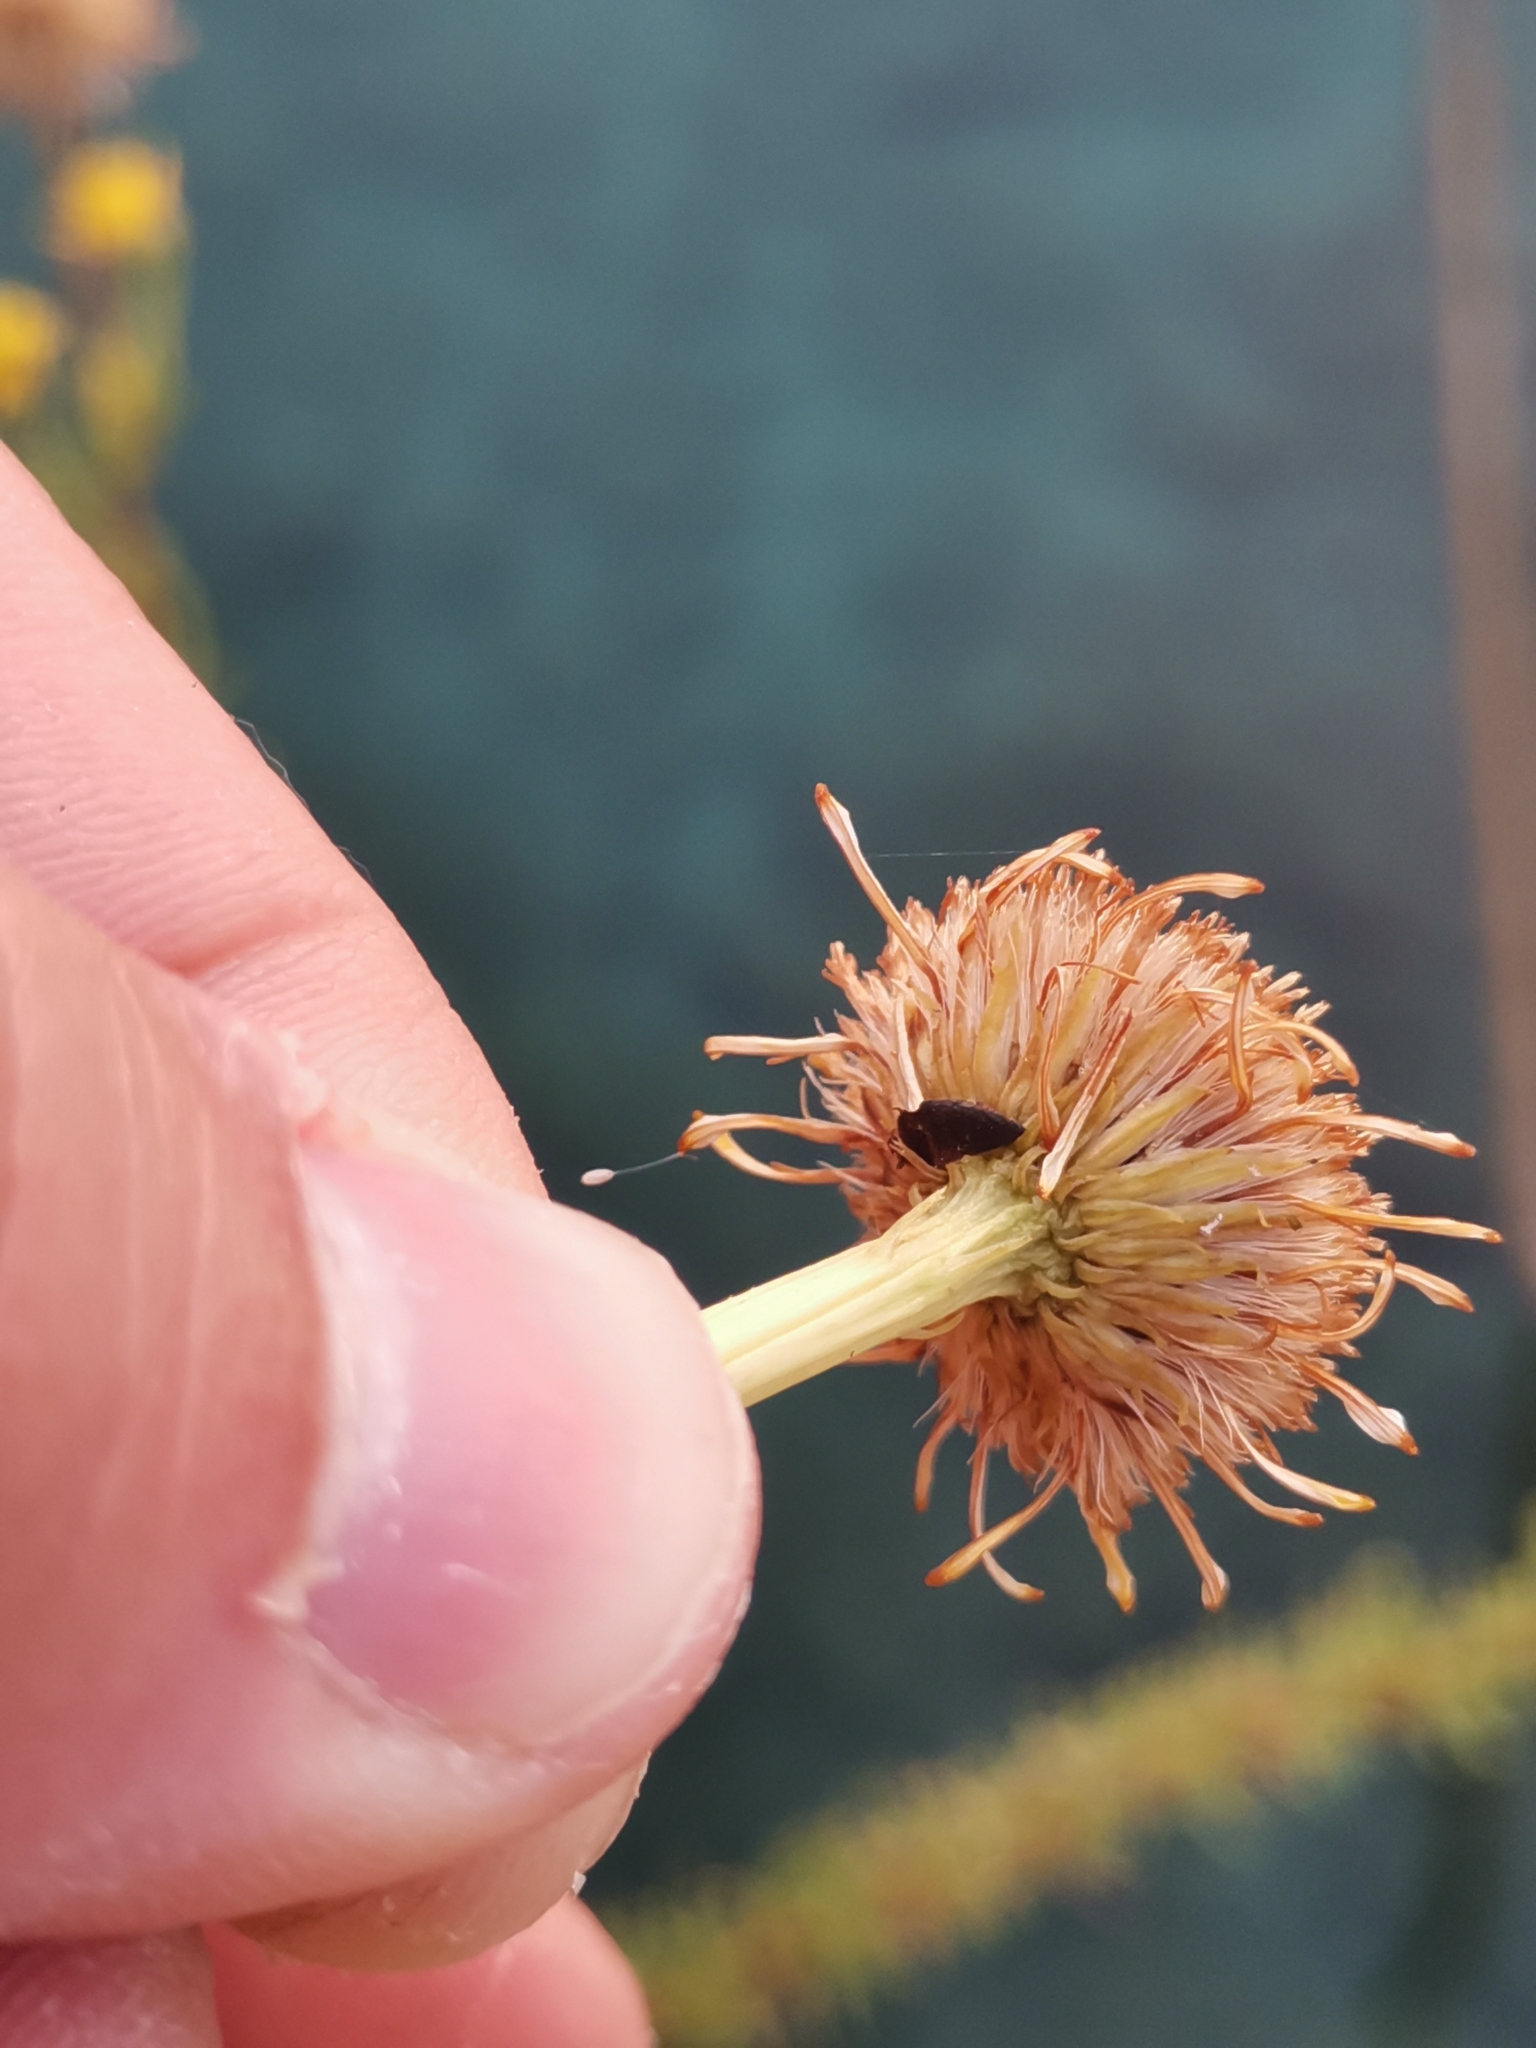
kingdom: Plantae
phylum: Tracheophyta
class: Magnoliopsida
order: Asterales
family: Asteraceae
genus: Limbarda
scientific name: Limbarda crithmoides
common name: Golden samphire
